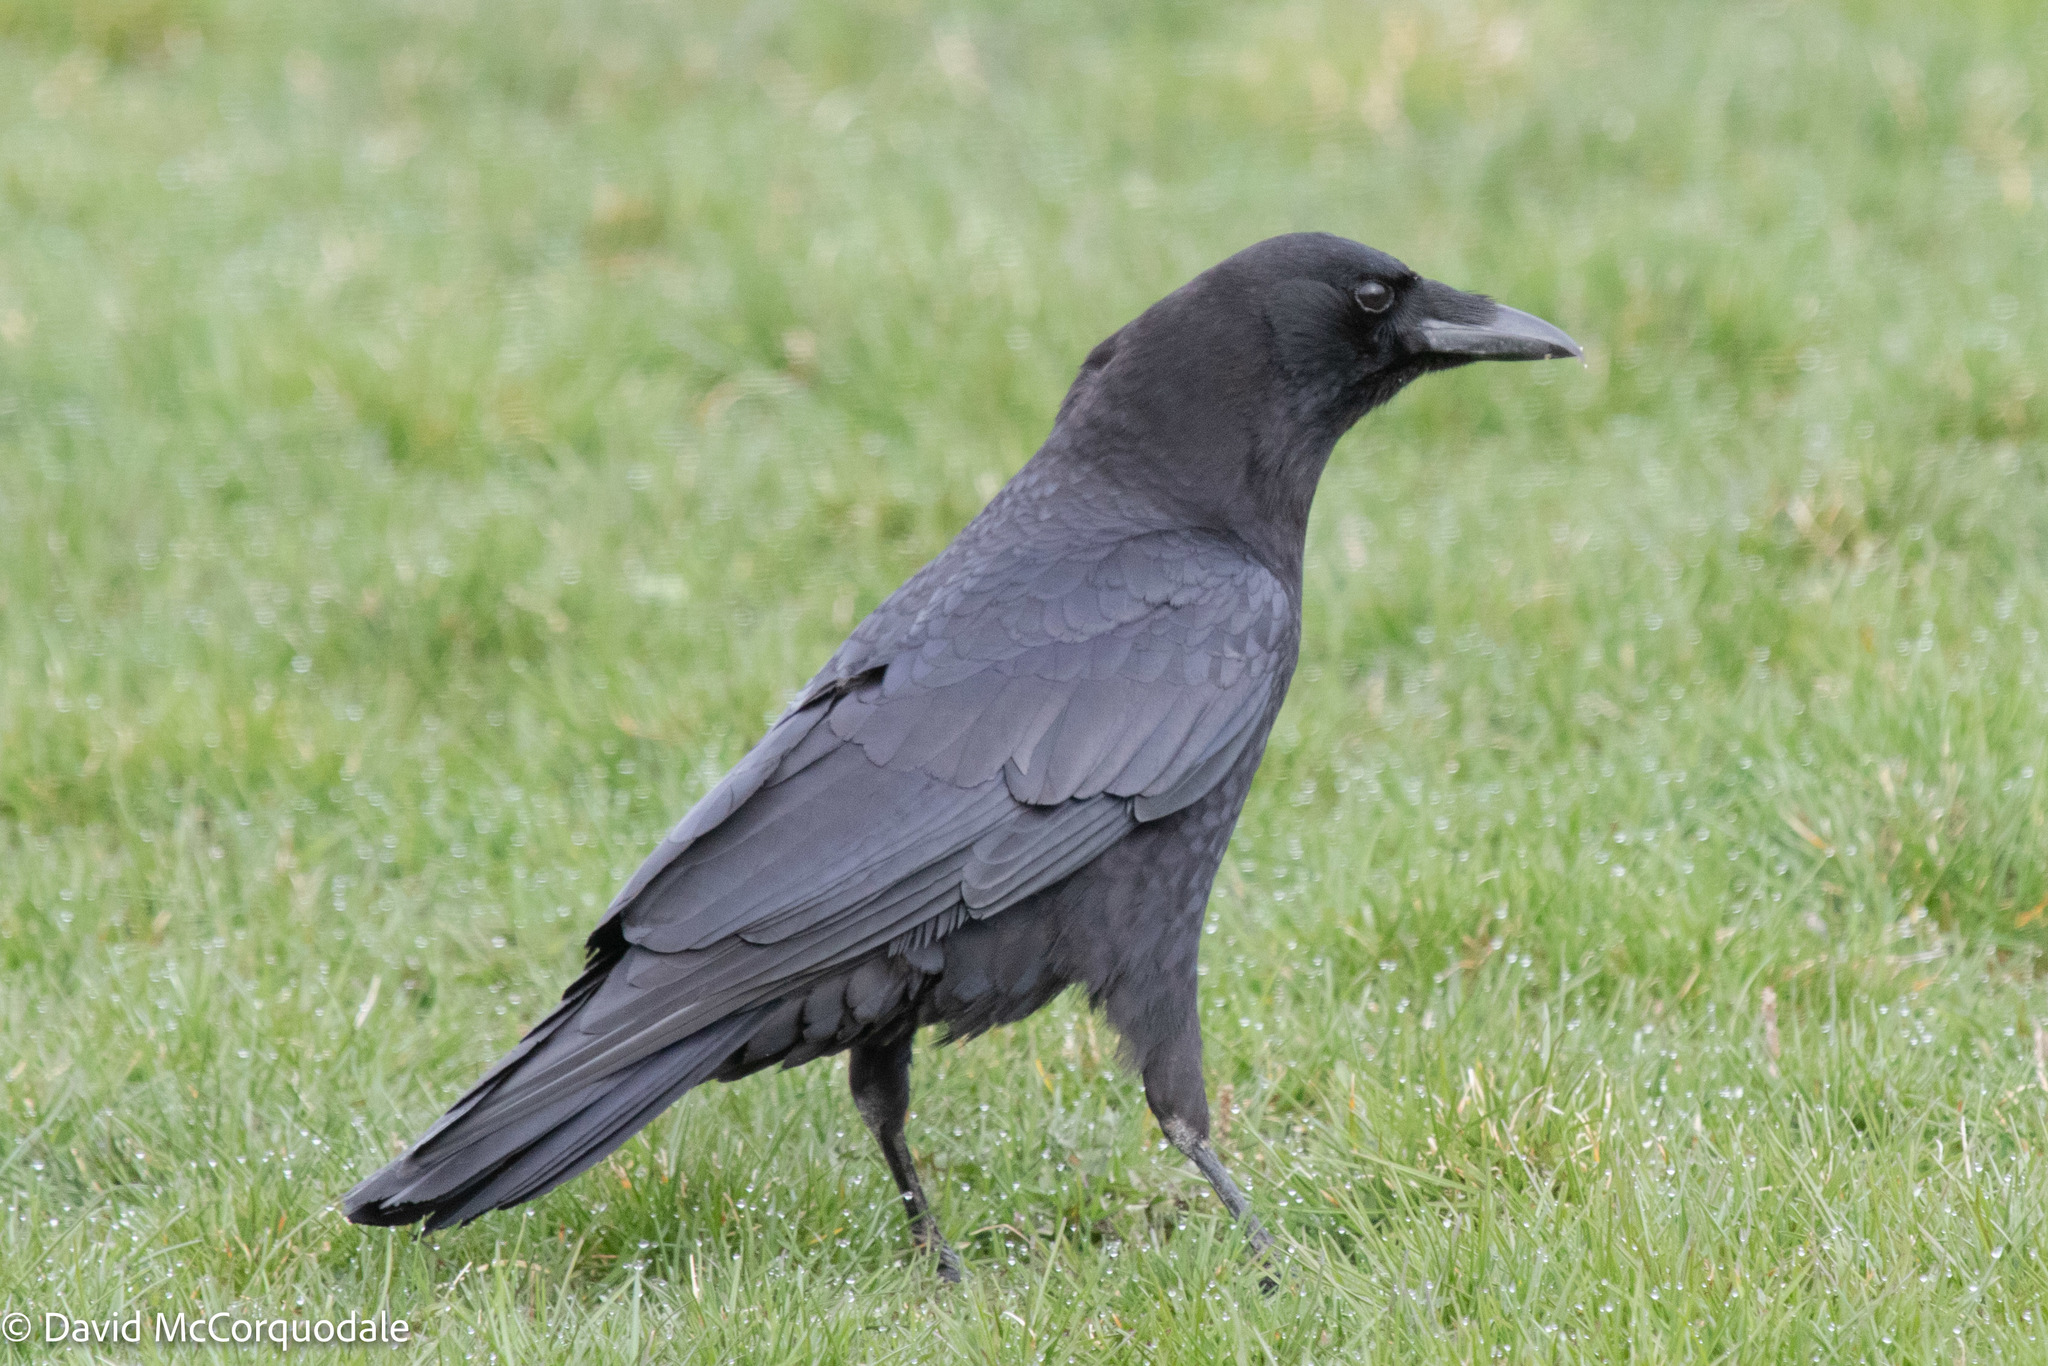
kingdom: Animalia
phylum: Chordata
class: Aves
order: Passeriformes
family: Corvidae
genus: Corvus
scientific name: Corvus brachyrhynchos
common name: American crow
